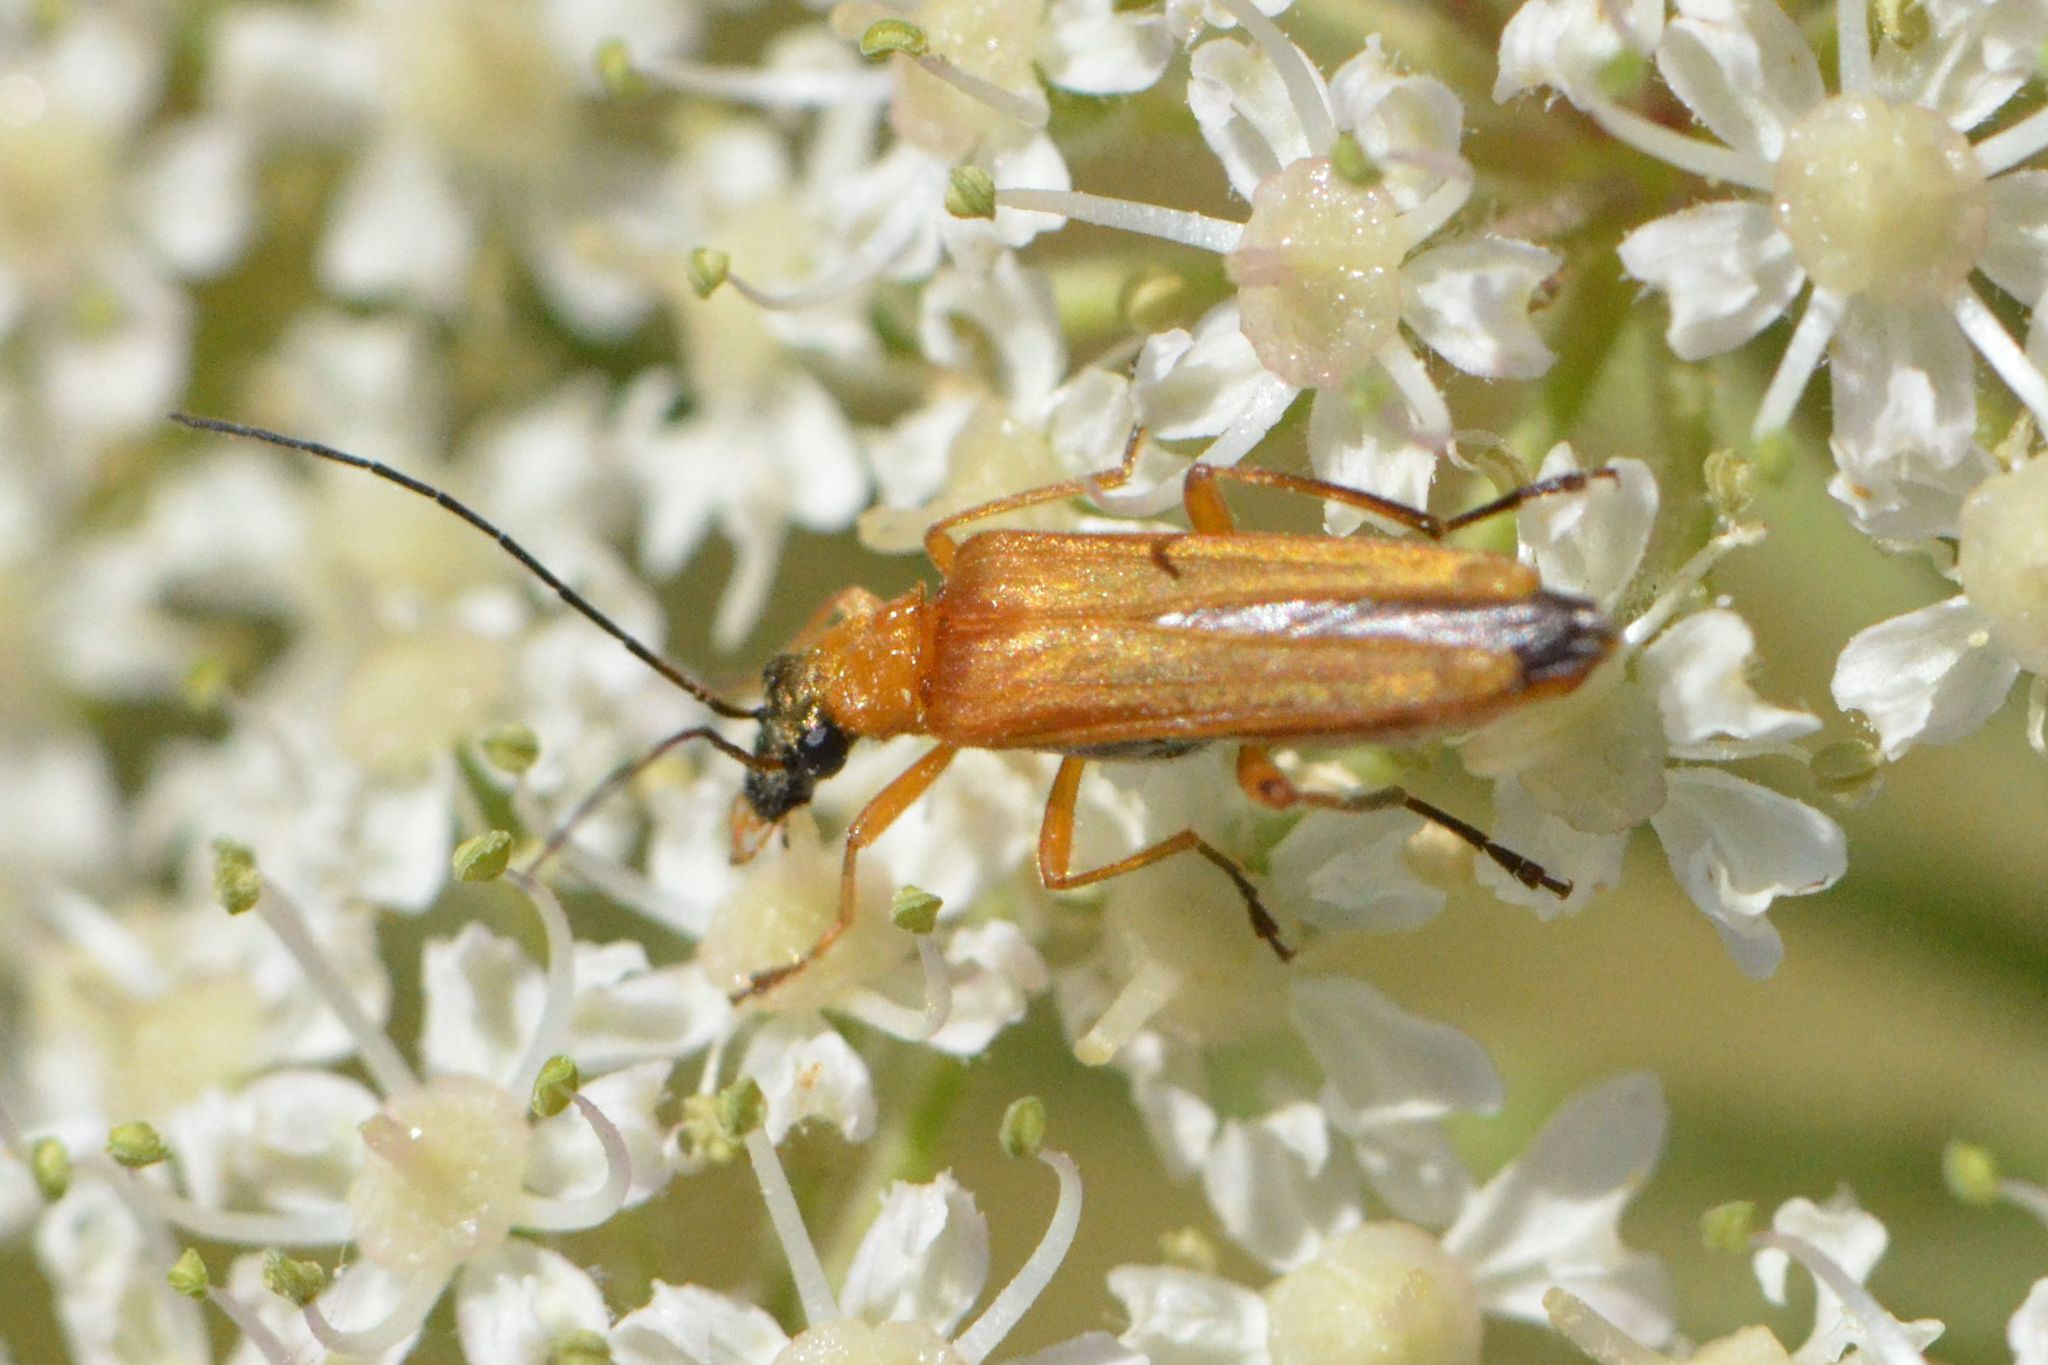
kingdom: Animalia
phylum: Arthropoda
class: Insecta
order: Coleoptera
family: Oedemeridae
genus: Oedemera
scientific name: Oedemera podagrariae
